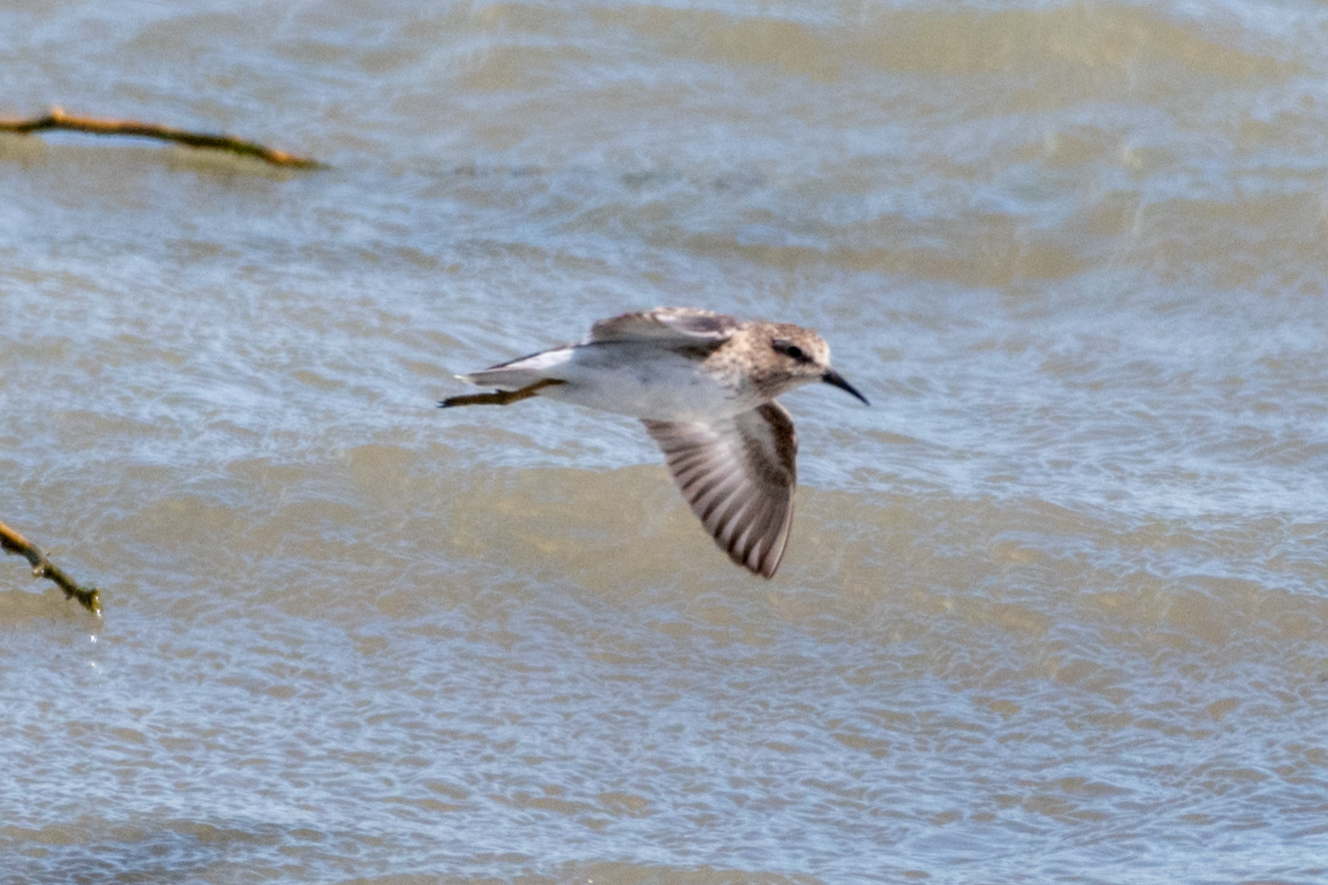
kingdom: Animalia
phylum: Chordata
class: Aves
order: Charadriiformes
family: Scolopacidae
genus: Calidris
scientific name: Calidris minutilla
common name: Least sandpiper
